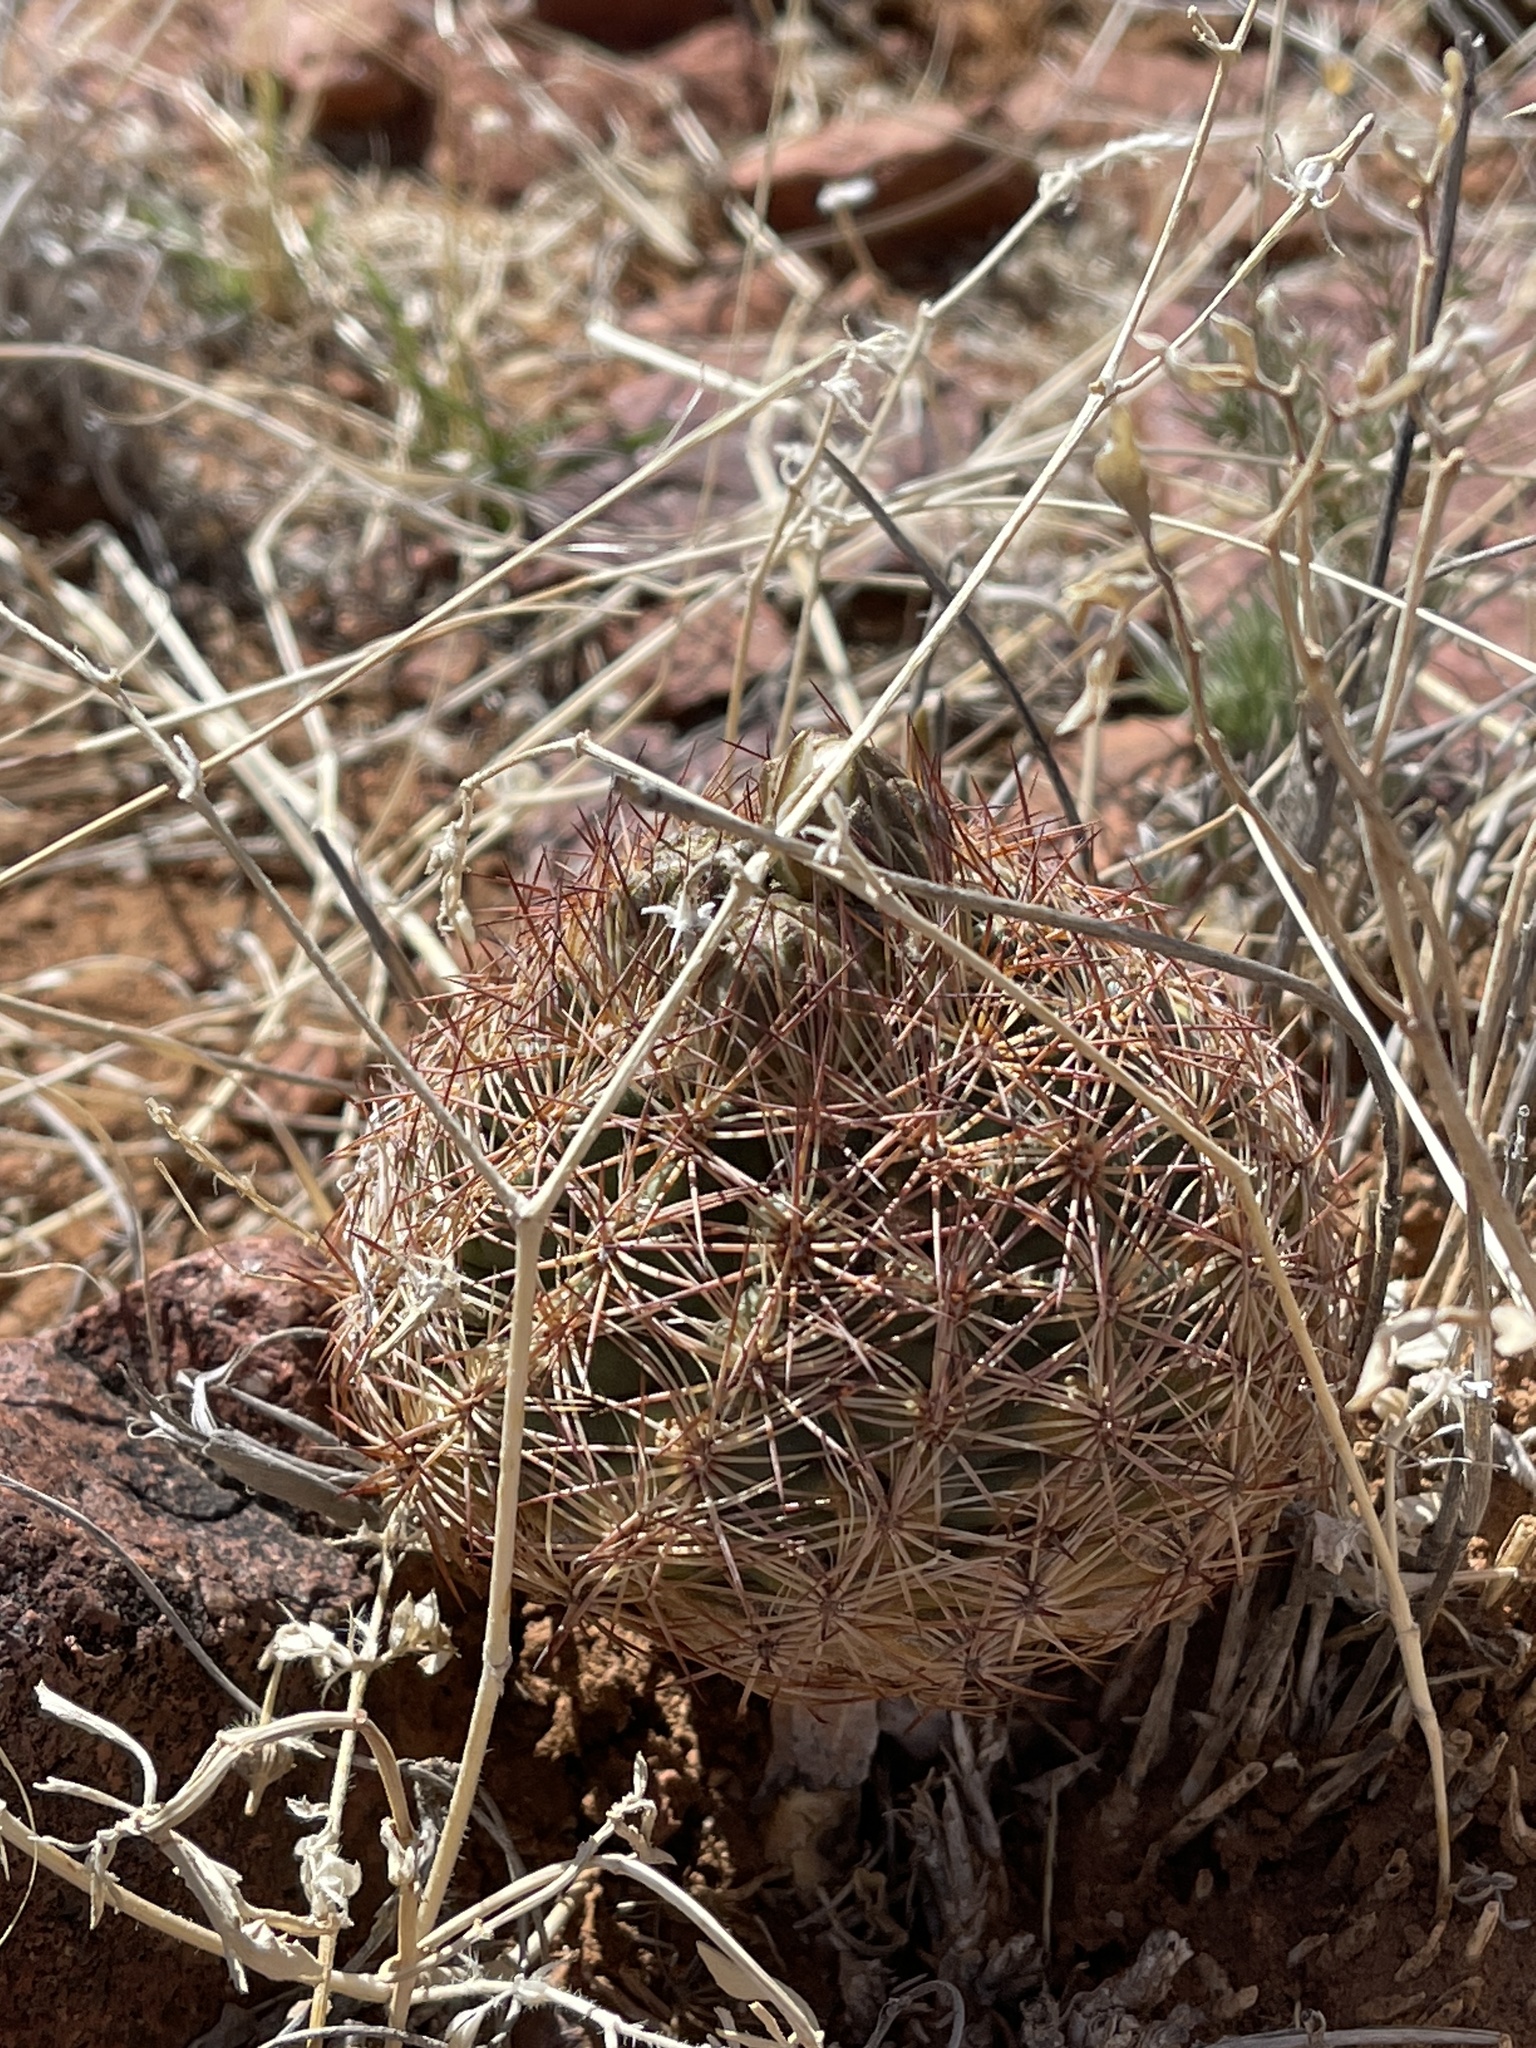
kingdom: Plantae
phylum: Tracheophyta
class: Magnoliopsida
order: Caryophyllales
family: Cactaceae
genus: Sclerocactus
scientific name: Sclerocactus intertextus
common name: White fish-hook cactus
